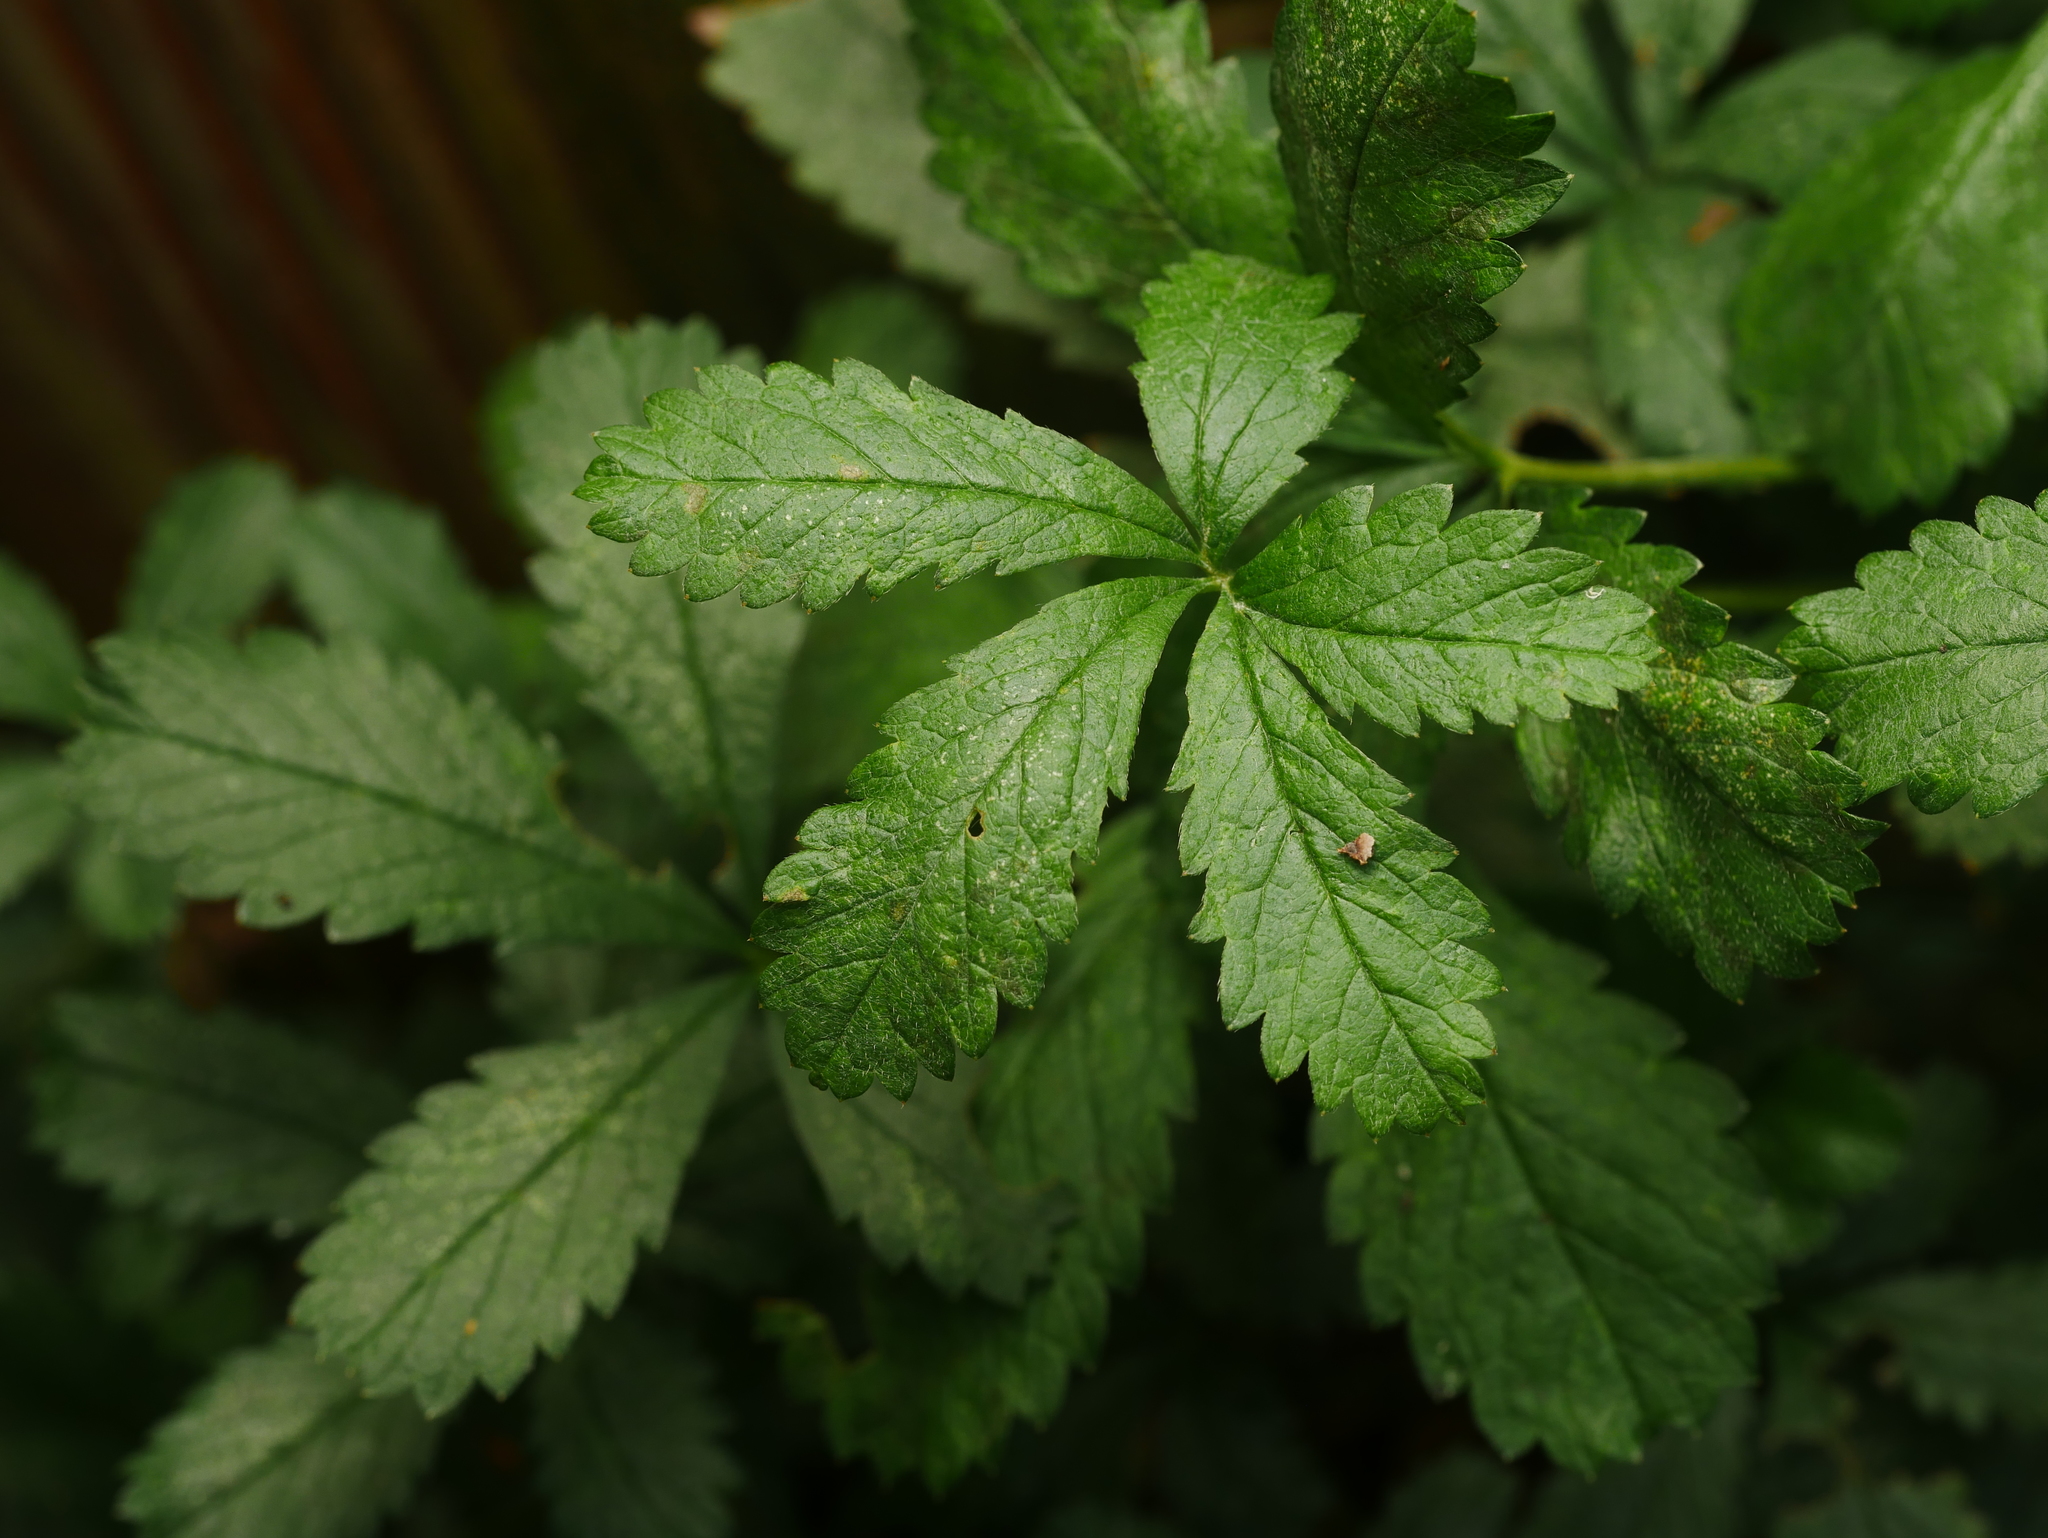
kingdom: Plantae
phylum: Tracheophyta
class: Magnoliopsida
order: Rosales
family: Rosaceae
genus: Potentilla
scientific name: Potentilla reptans
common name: Creeping cinquefoil
